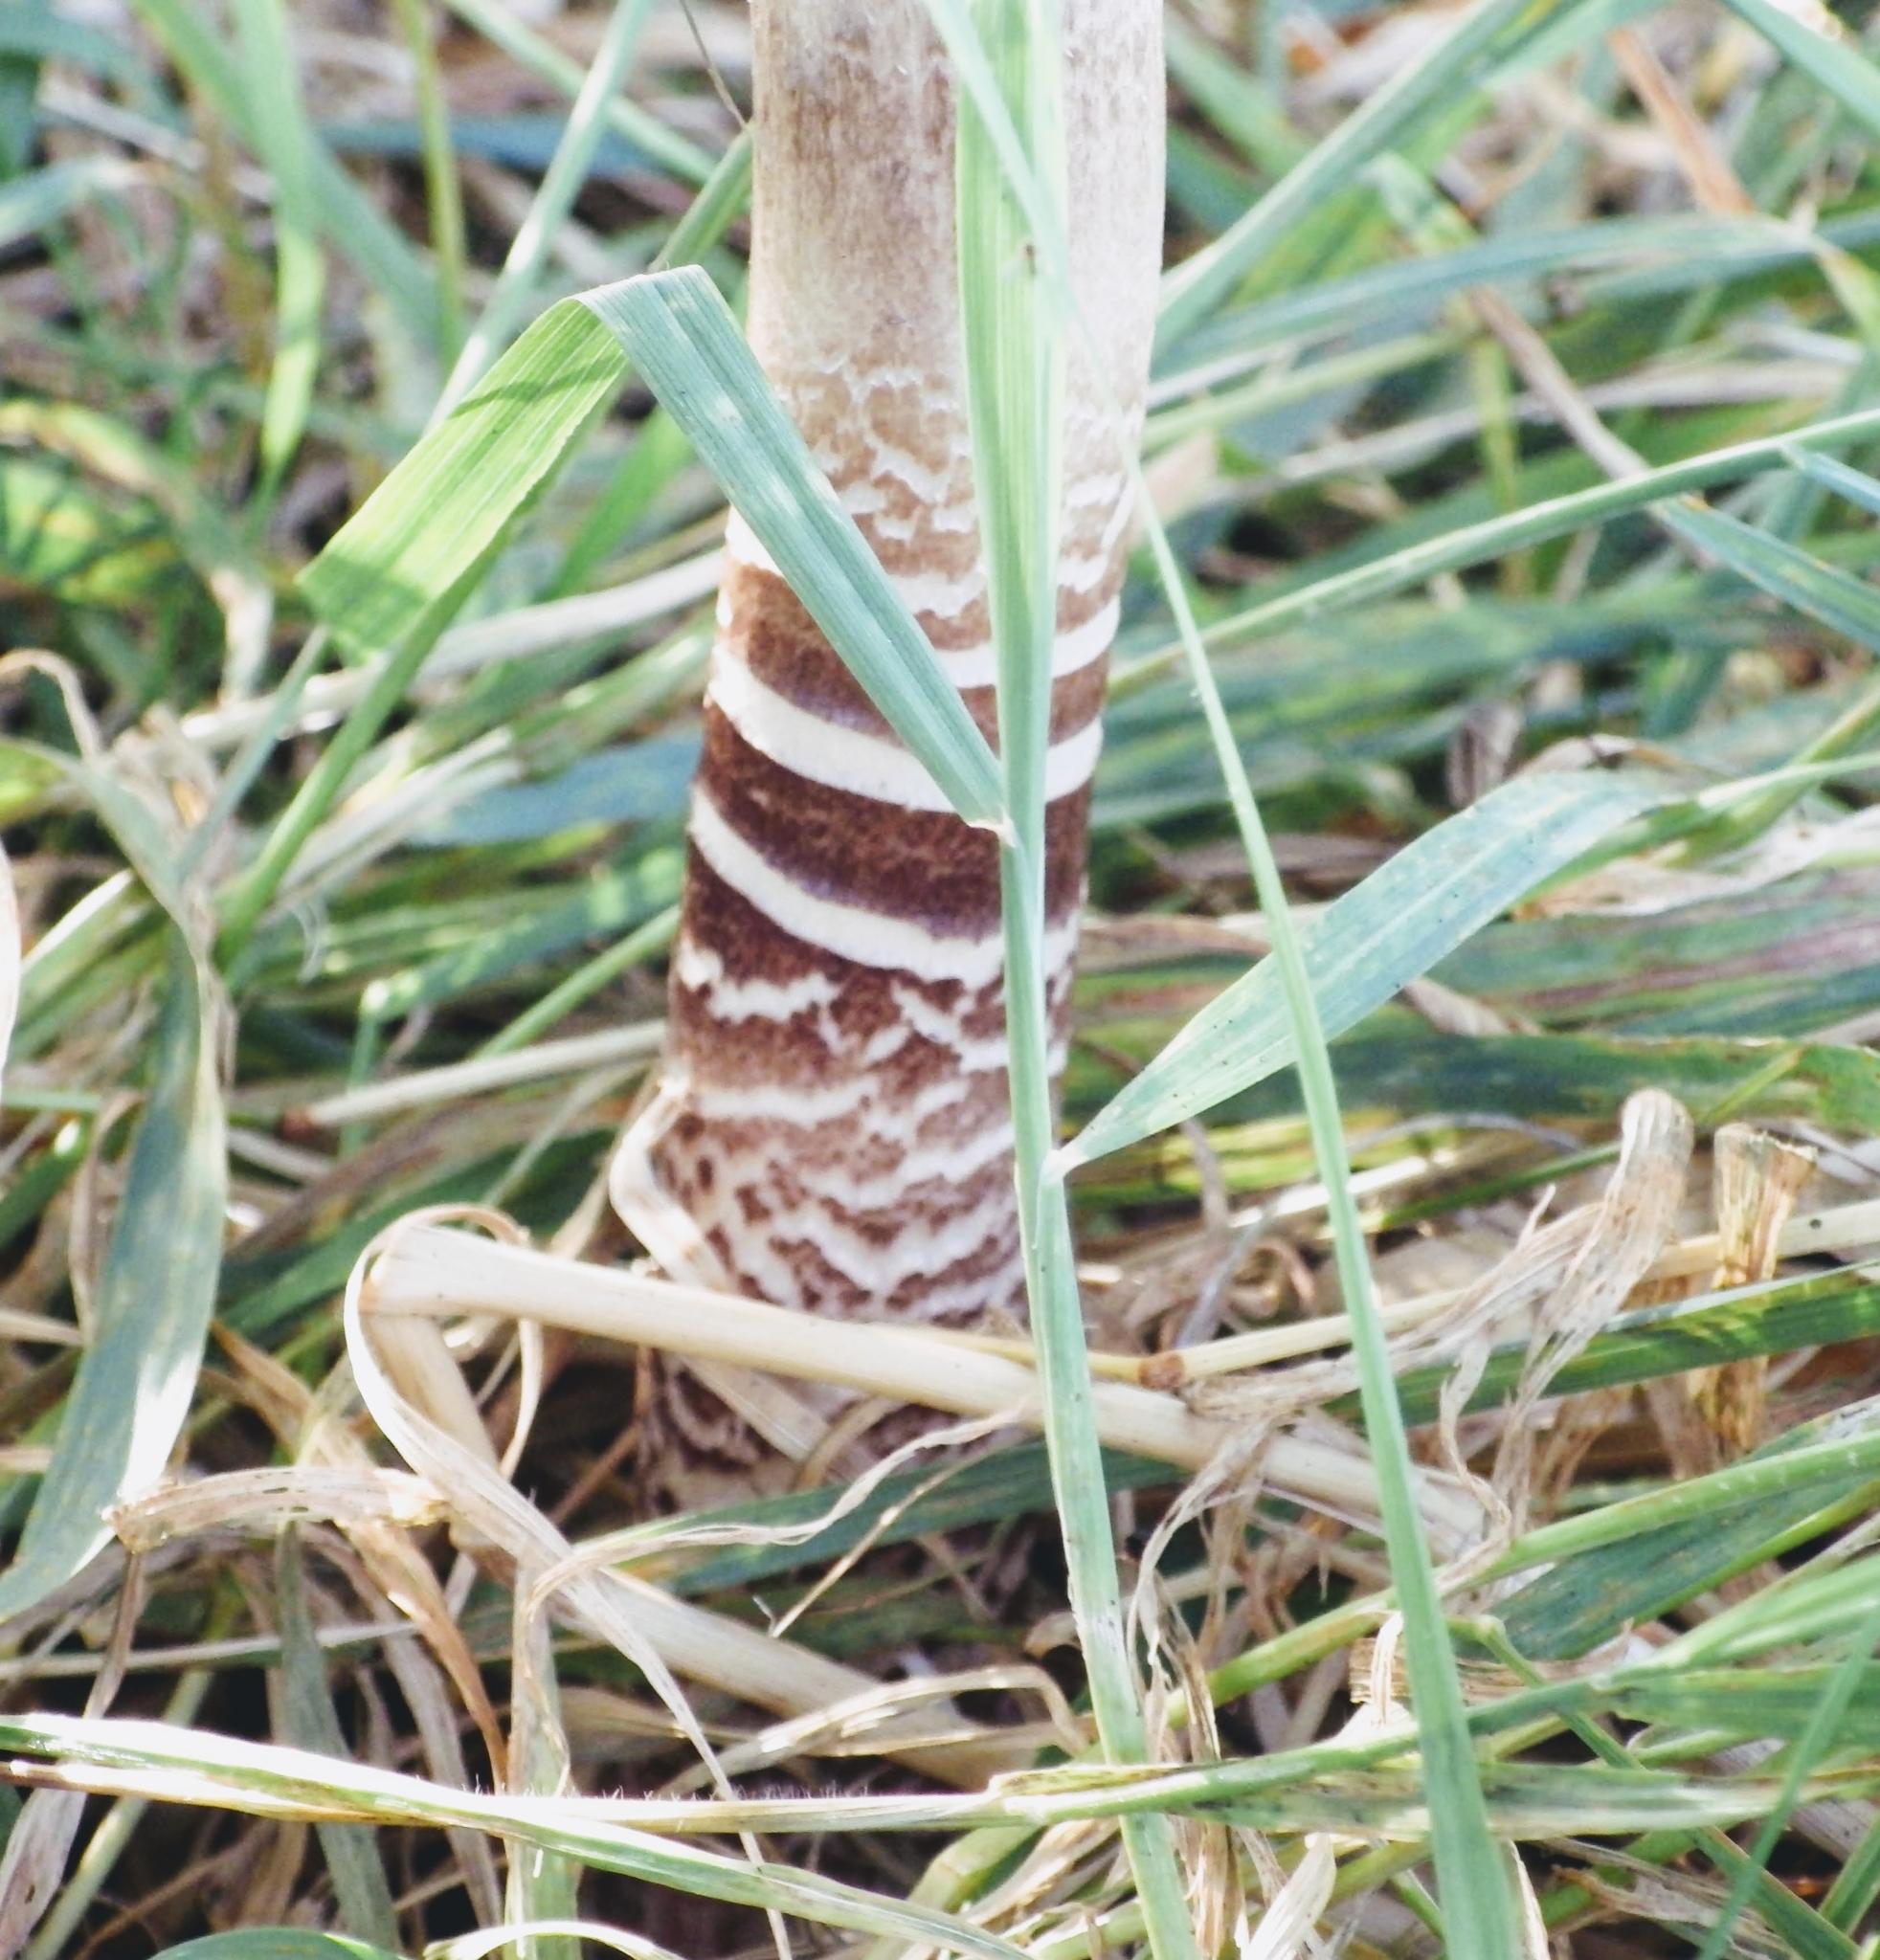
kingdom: Fungi
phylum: Basidiomycota
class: Agaricomycetes
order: Agaricales
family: Agaricaceae
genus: Macrolepiota
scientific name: Macrolepiota procera
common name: Parasol
